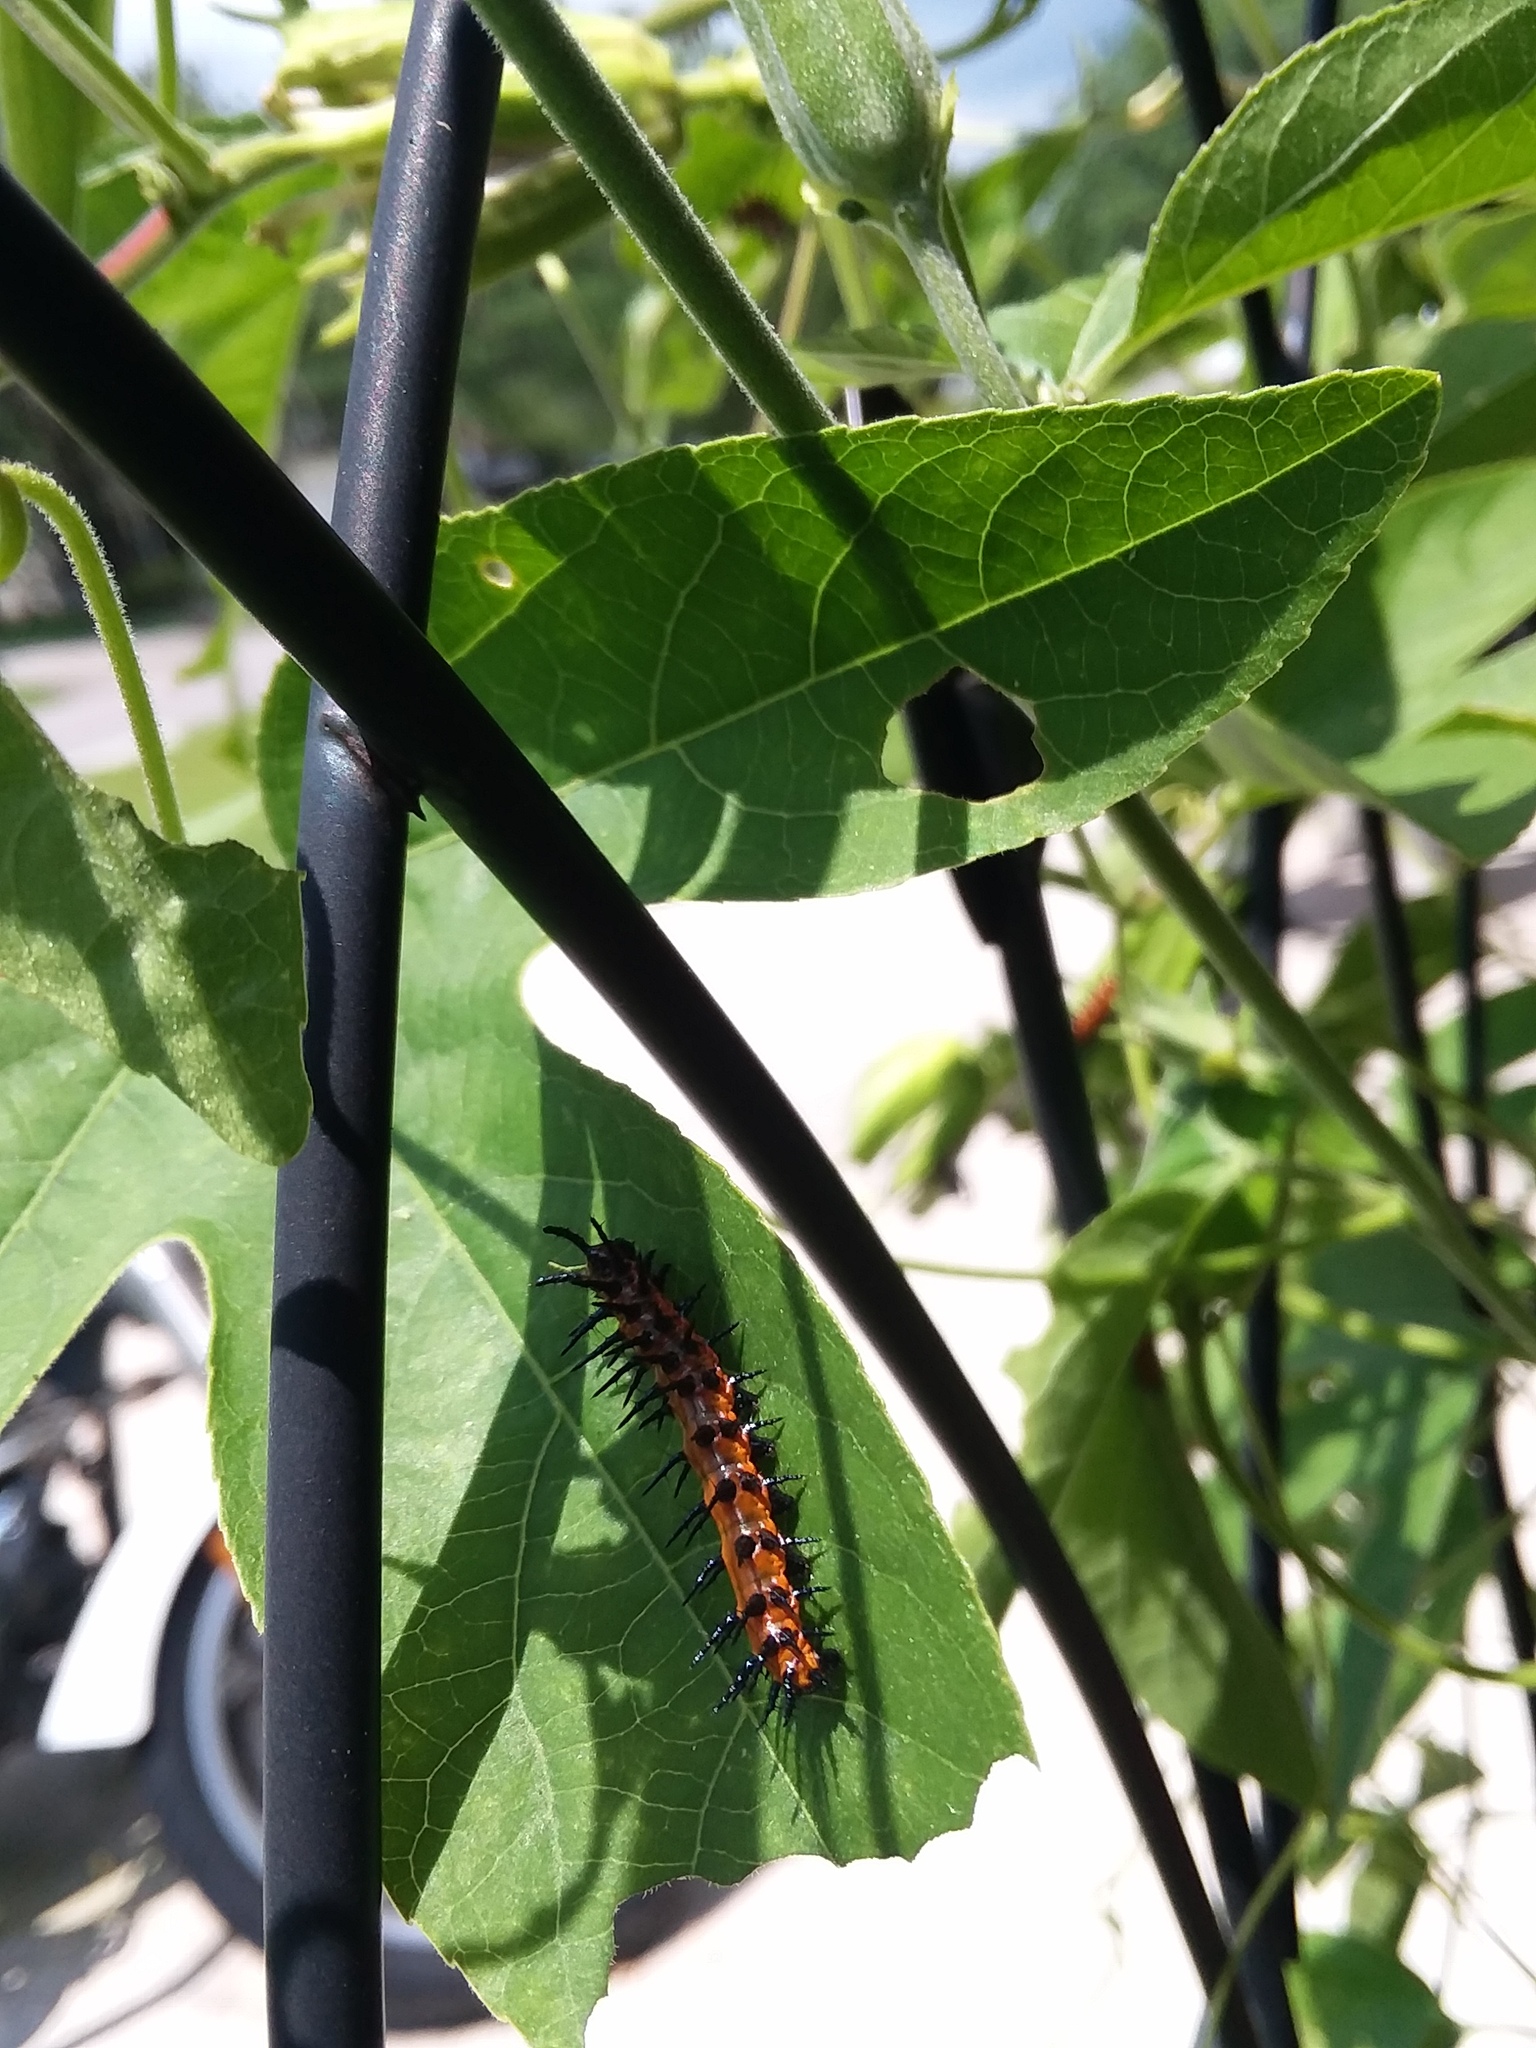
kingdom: Animalia
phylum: Arthropoda
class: Insecta
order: Lepidoptera
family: Nymphalidae
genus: Dione
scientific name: Dione vanillae
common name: Gulf fritillary
